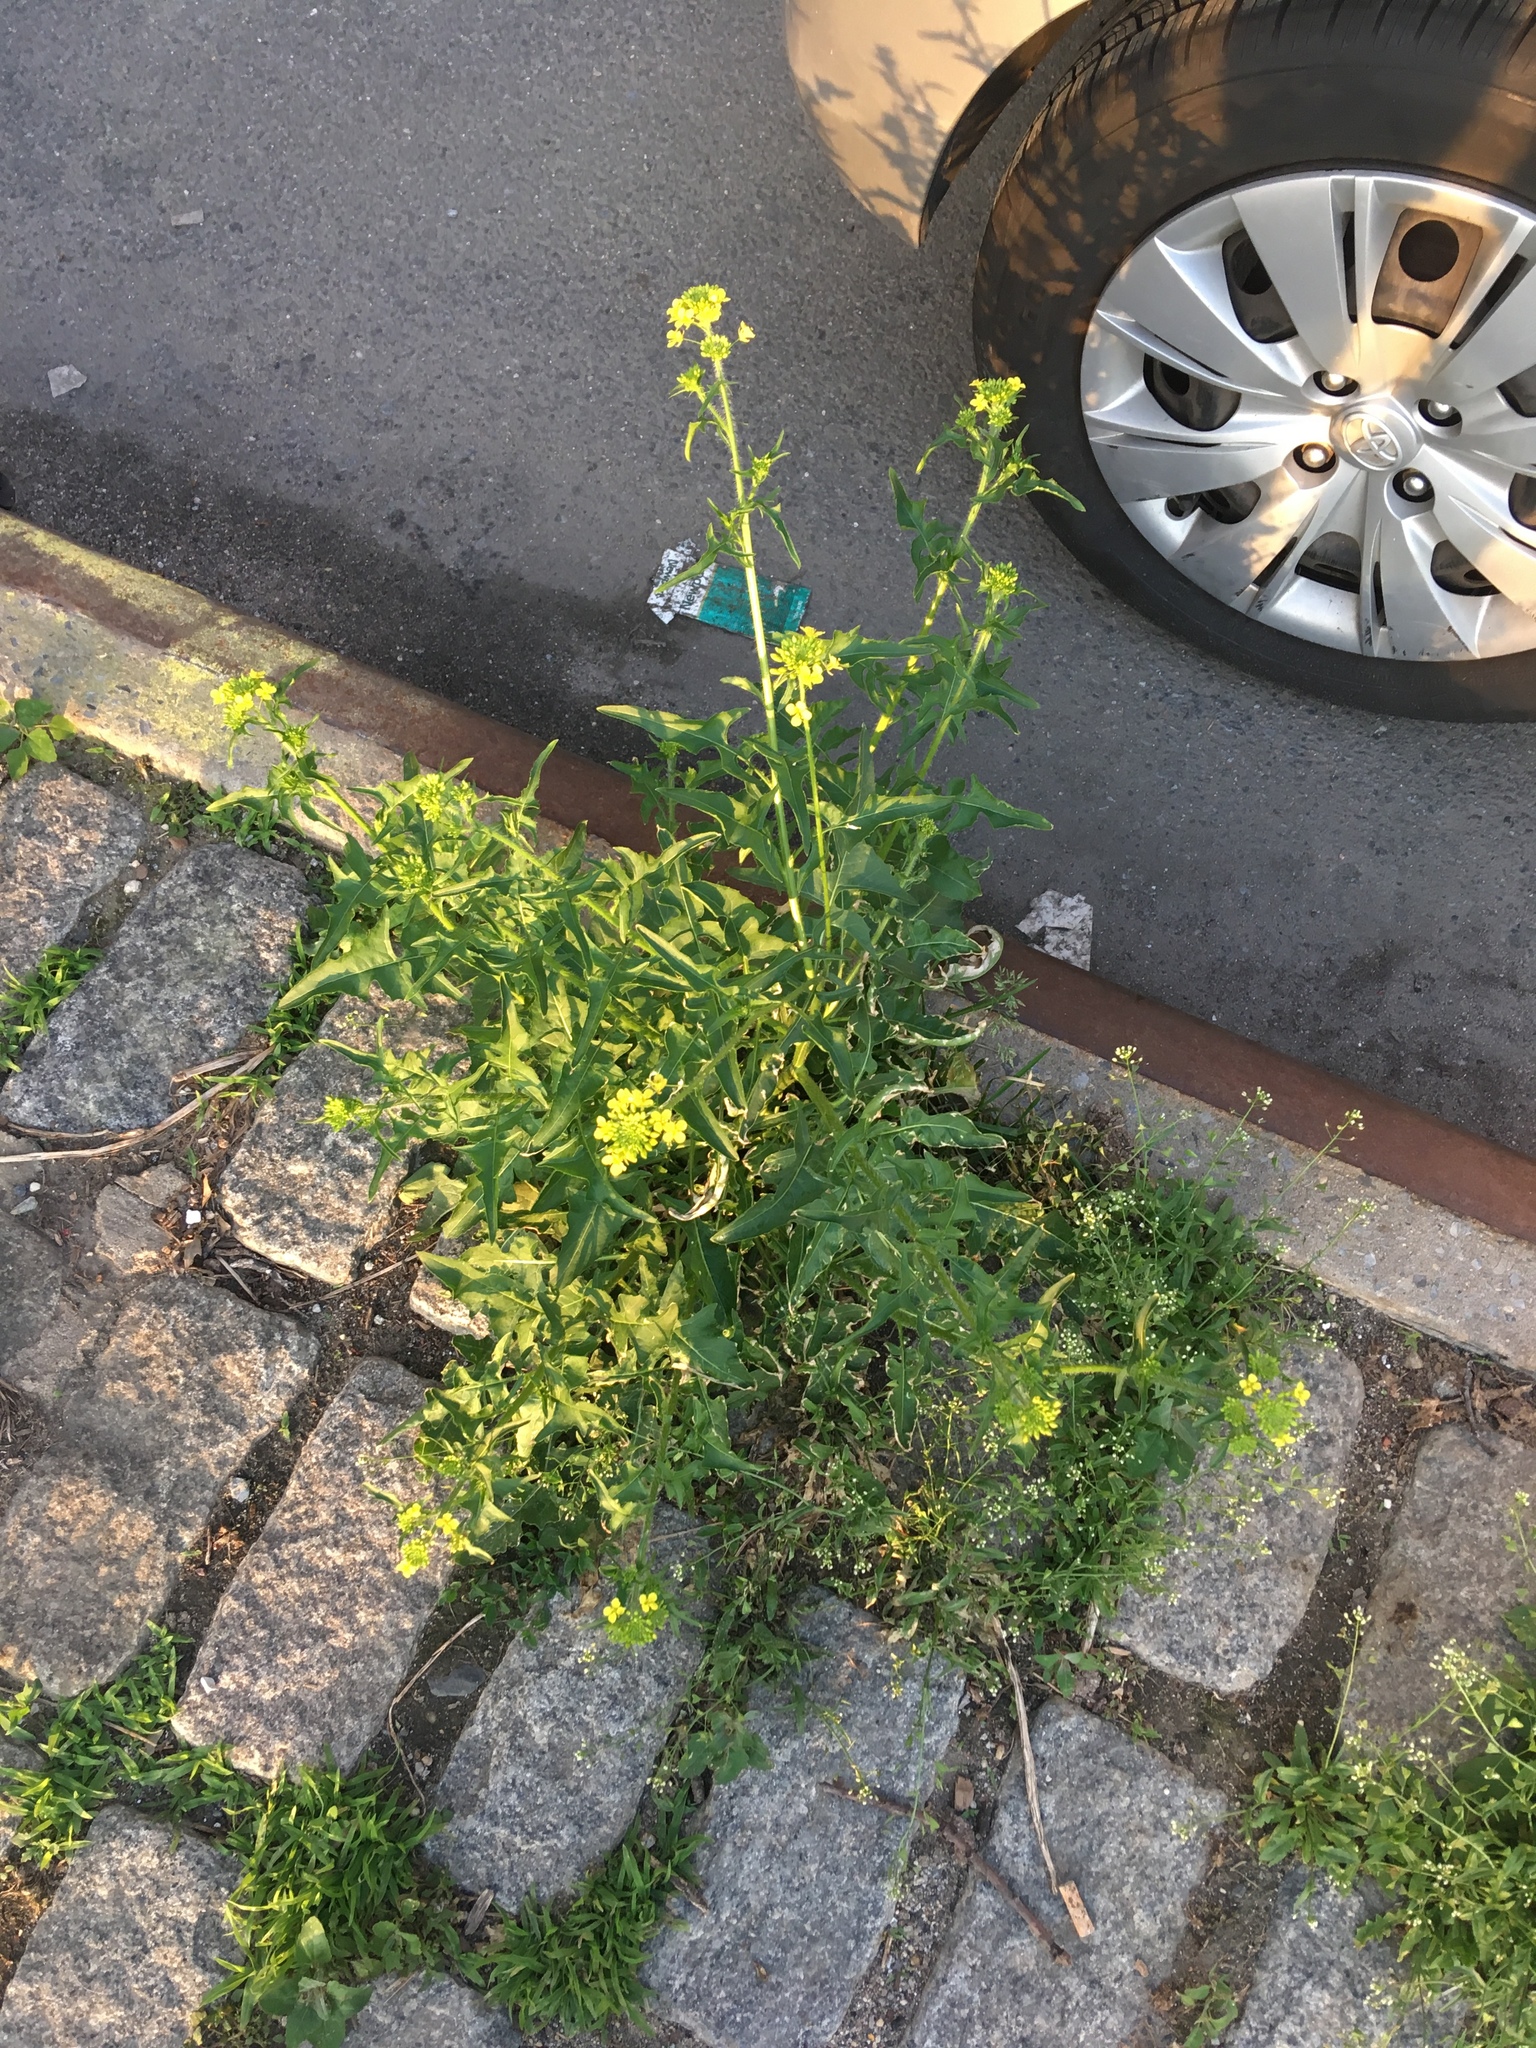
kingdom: Plantae
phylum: Tracheophyta
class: Magnoliopsida
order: Brassicales
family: Brassicaceae
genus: Sisymbrium
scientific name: Sisymbrium loeselii
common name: False london-rocket
